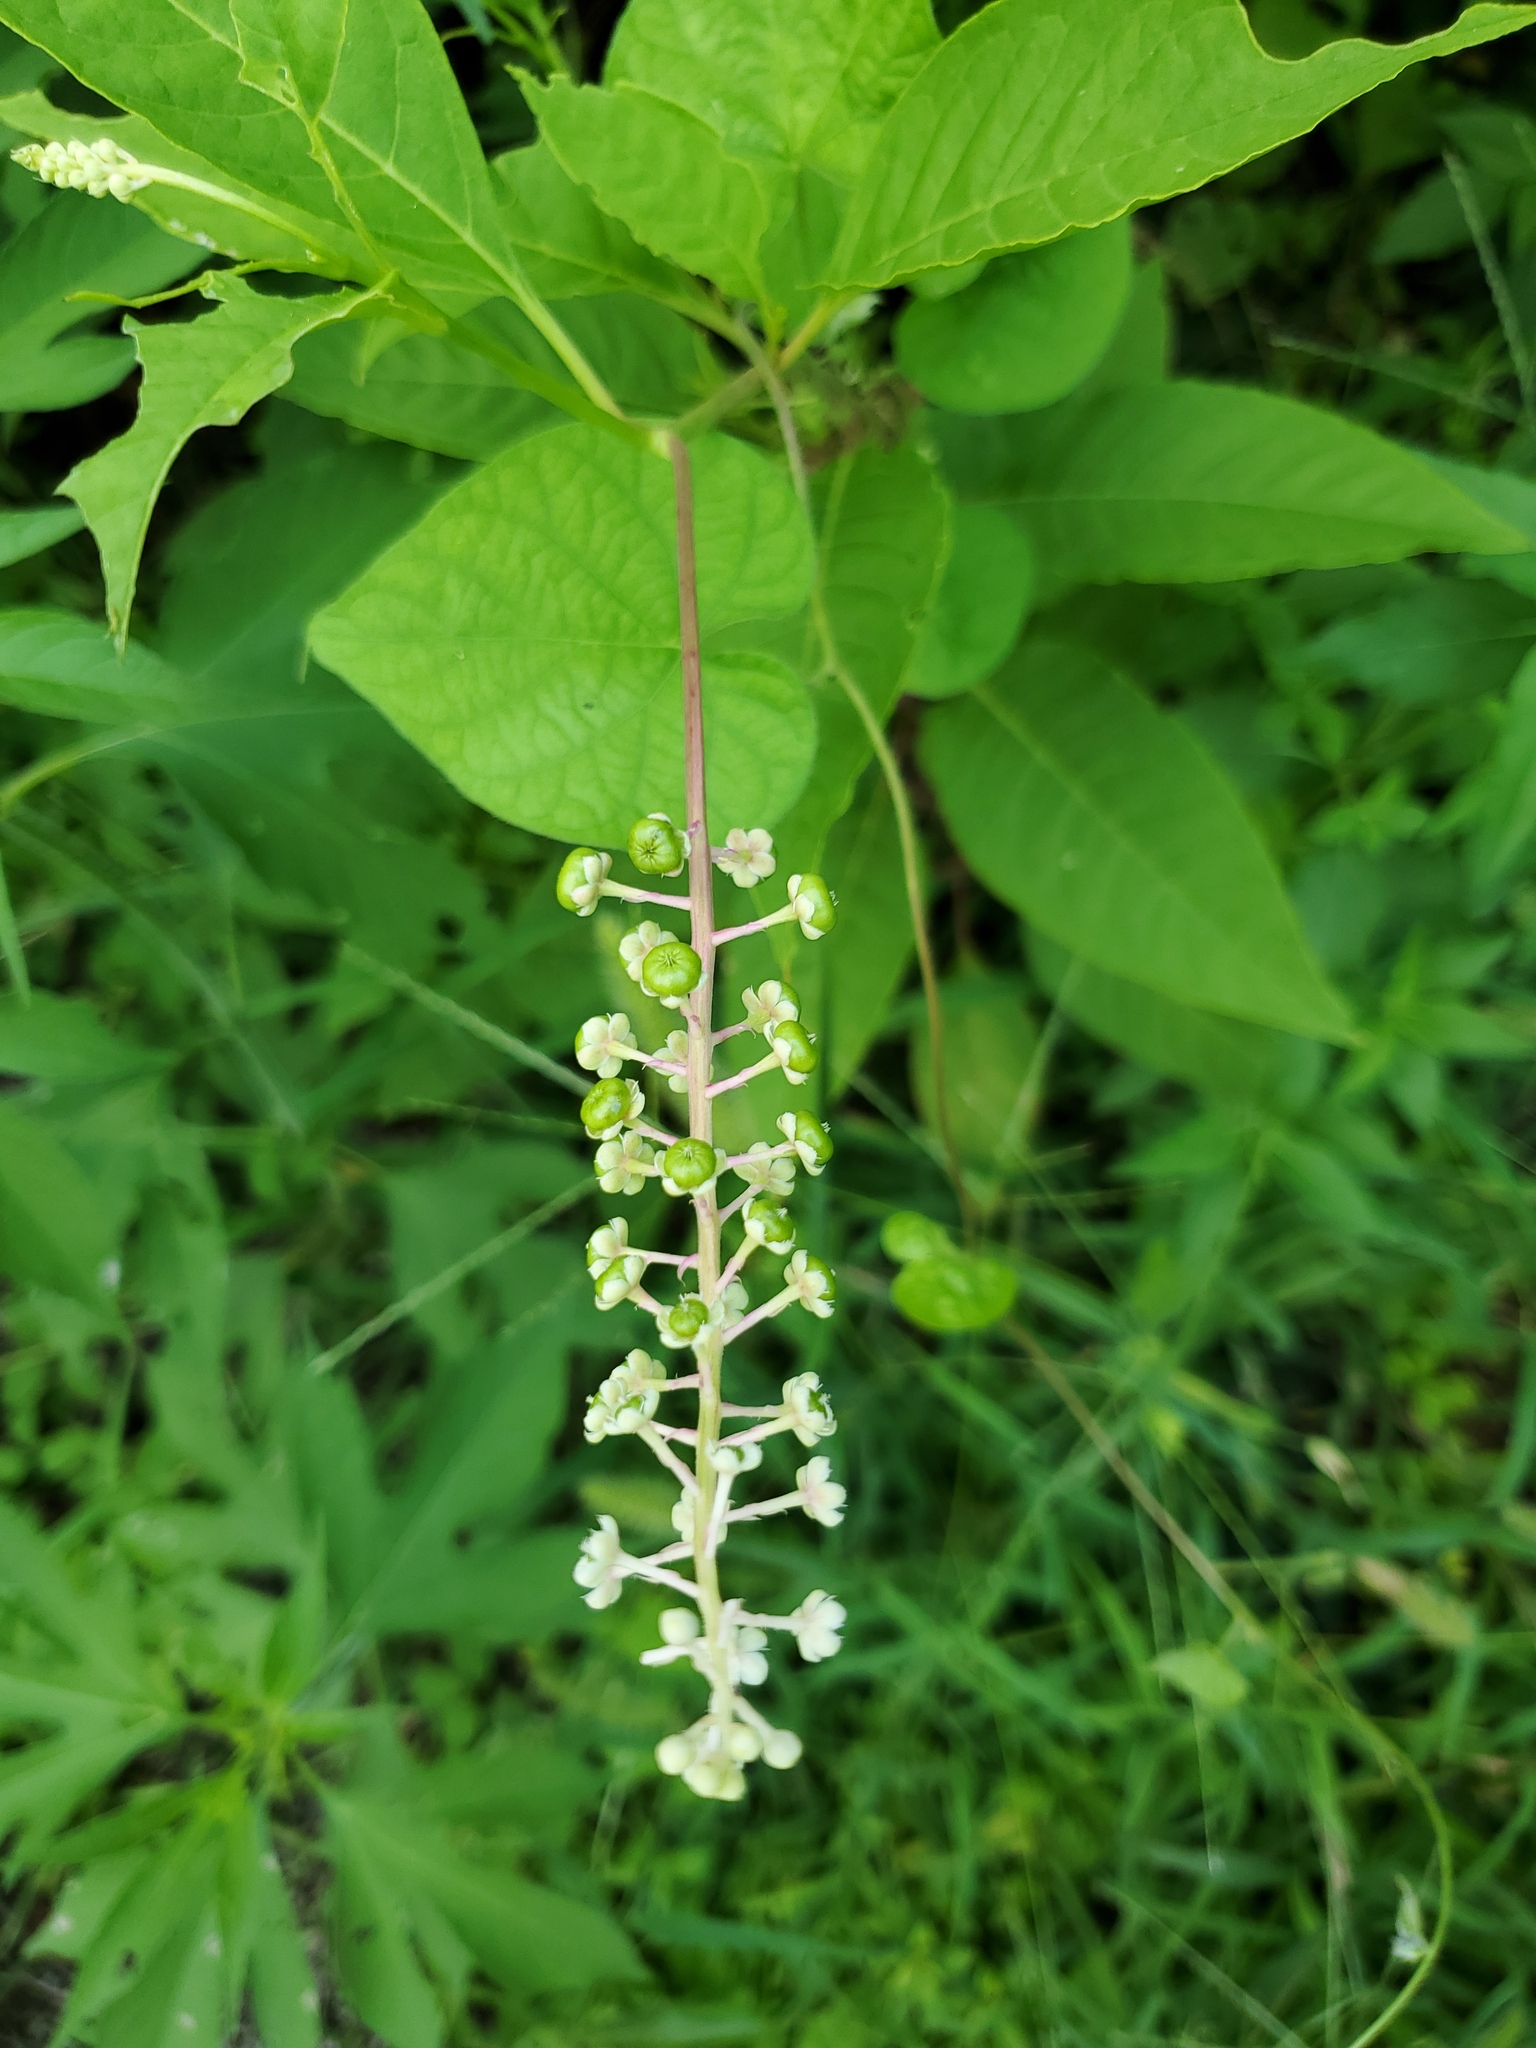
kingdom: Plantae
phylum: Tracheophyta
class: Magnoliopsida
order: Caryophyllales
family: Phytolaccaceae
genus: Phytolacca
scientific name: Phytolacca americana
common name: American pokeweed
